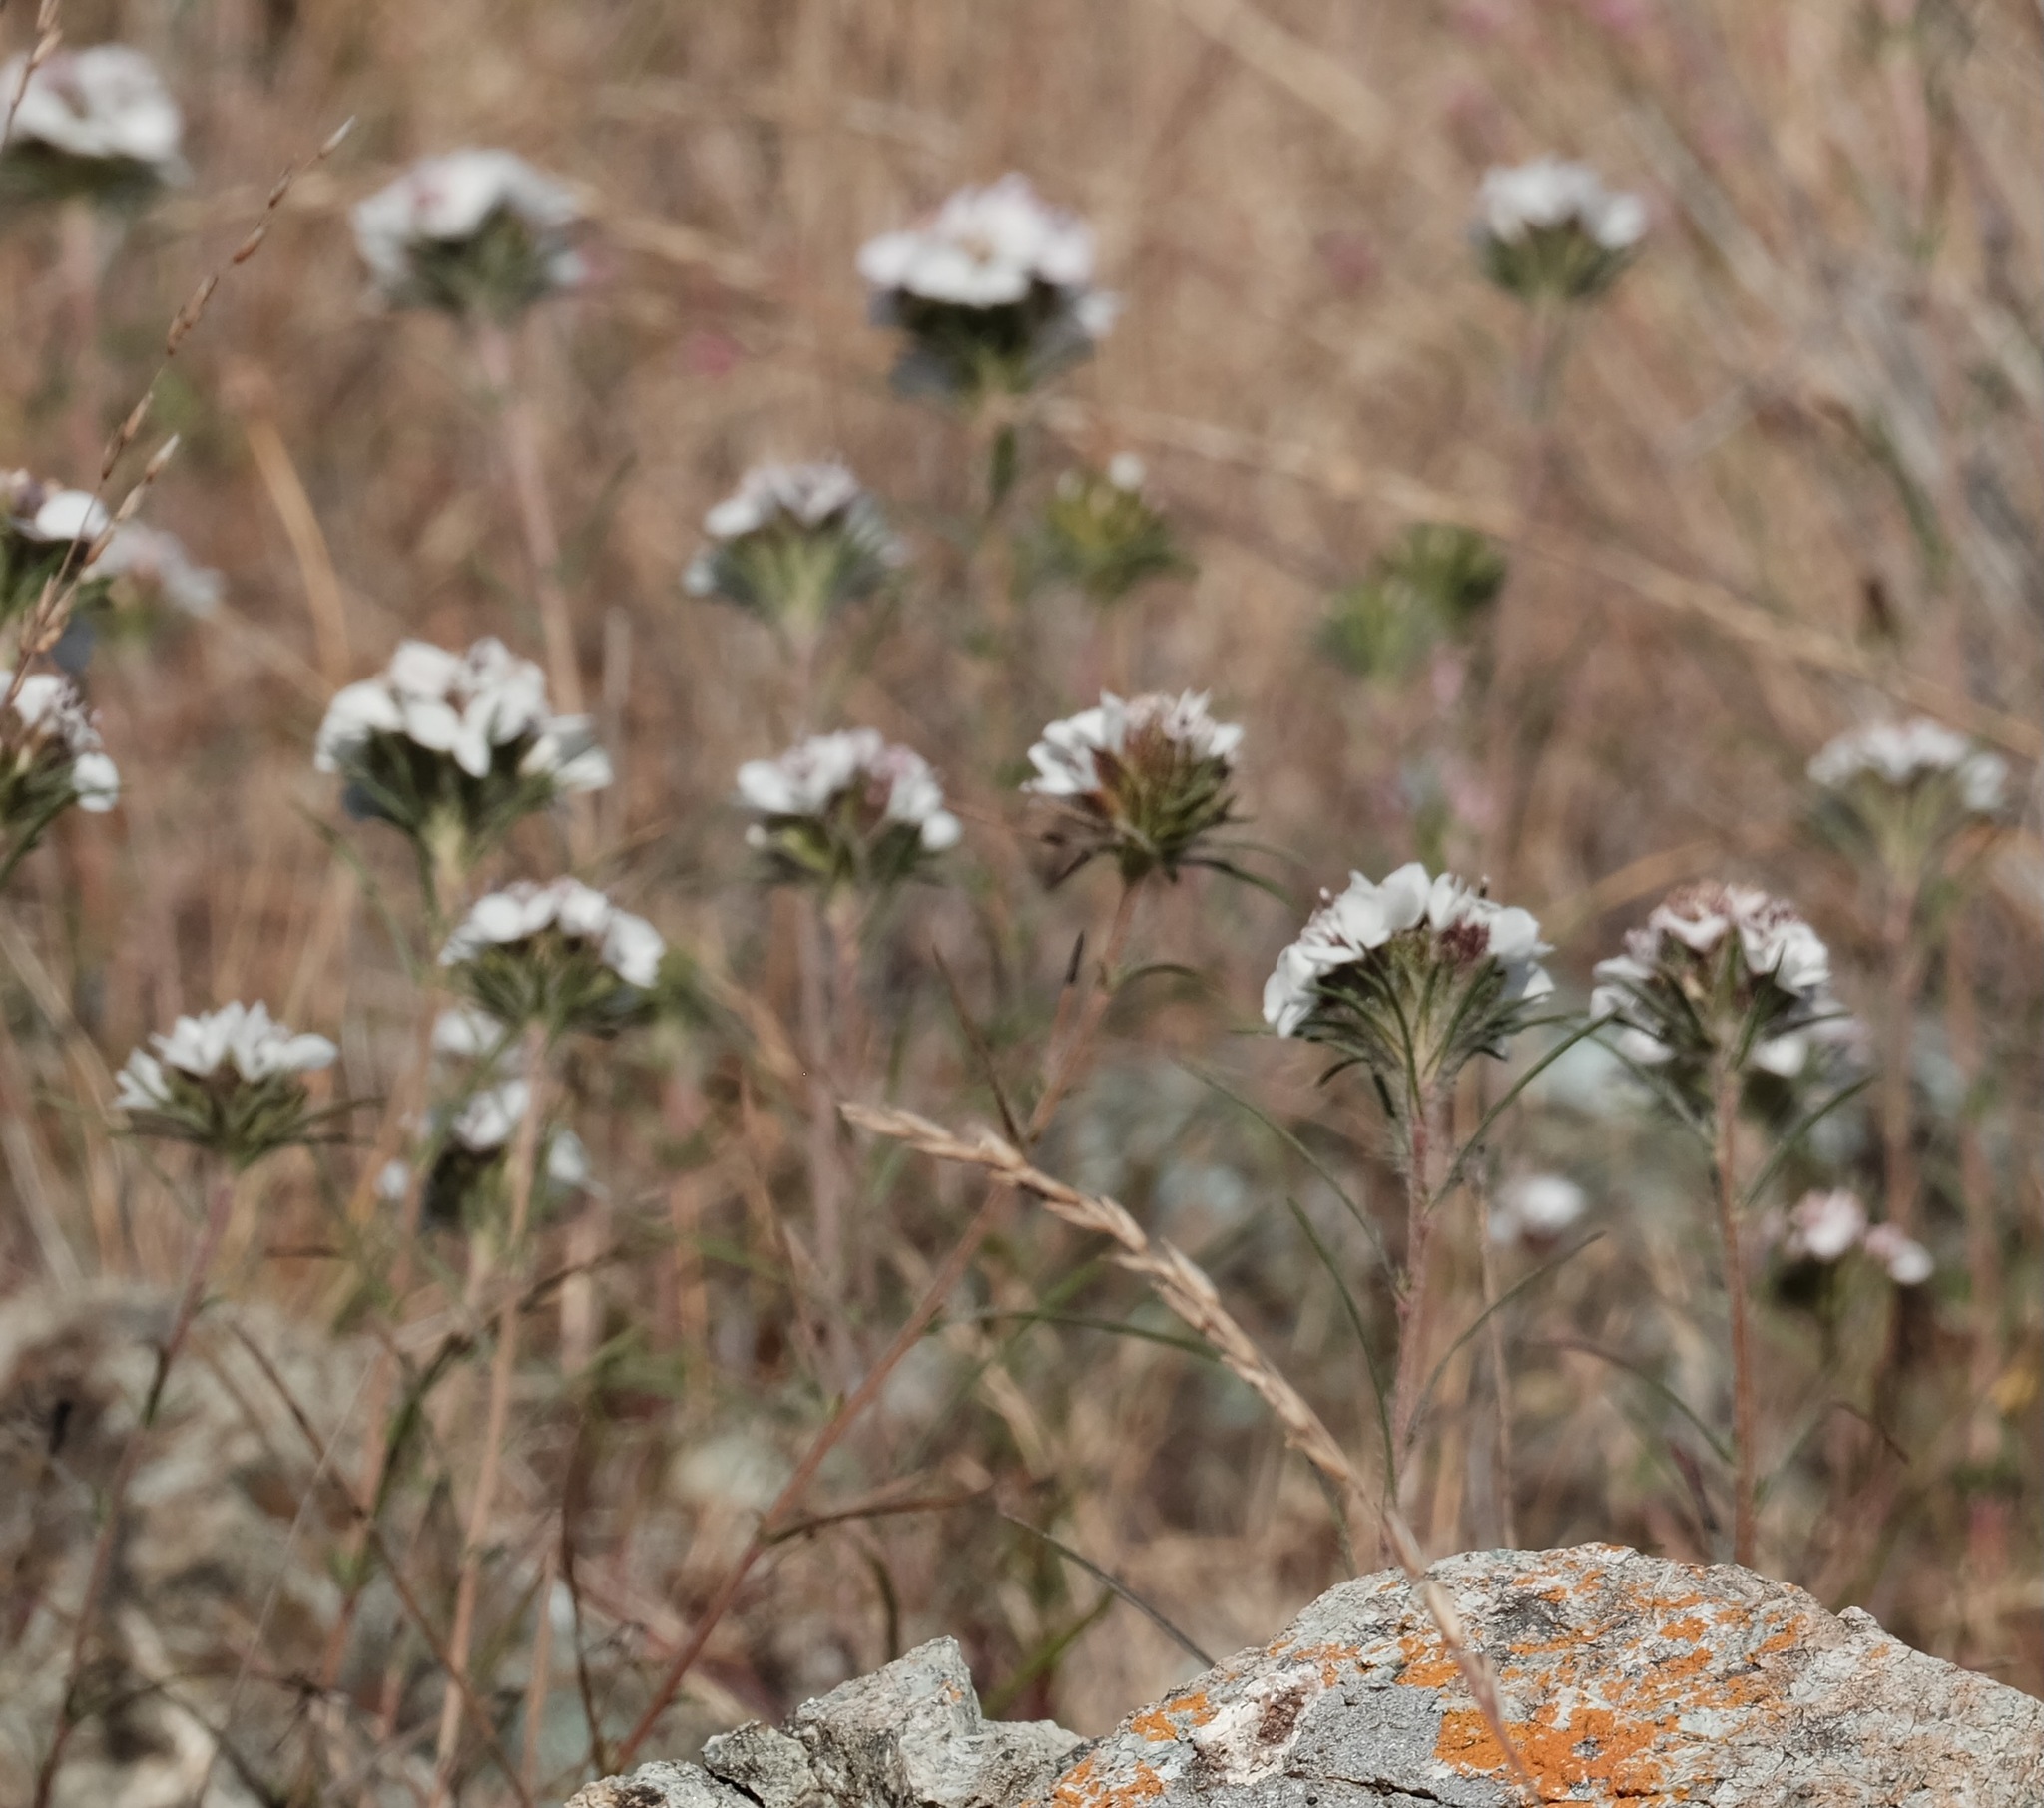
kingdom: Plantae
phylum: Tracheophyta
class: Magnoliopsida
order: Asterales
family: Asteraceae
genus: Calycadenia
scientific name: Calycadenia multiglandulosa
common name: Sticky calycadenia
